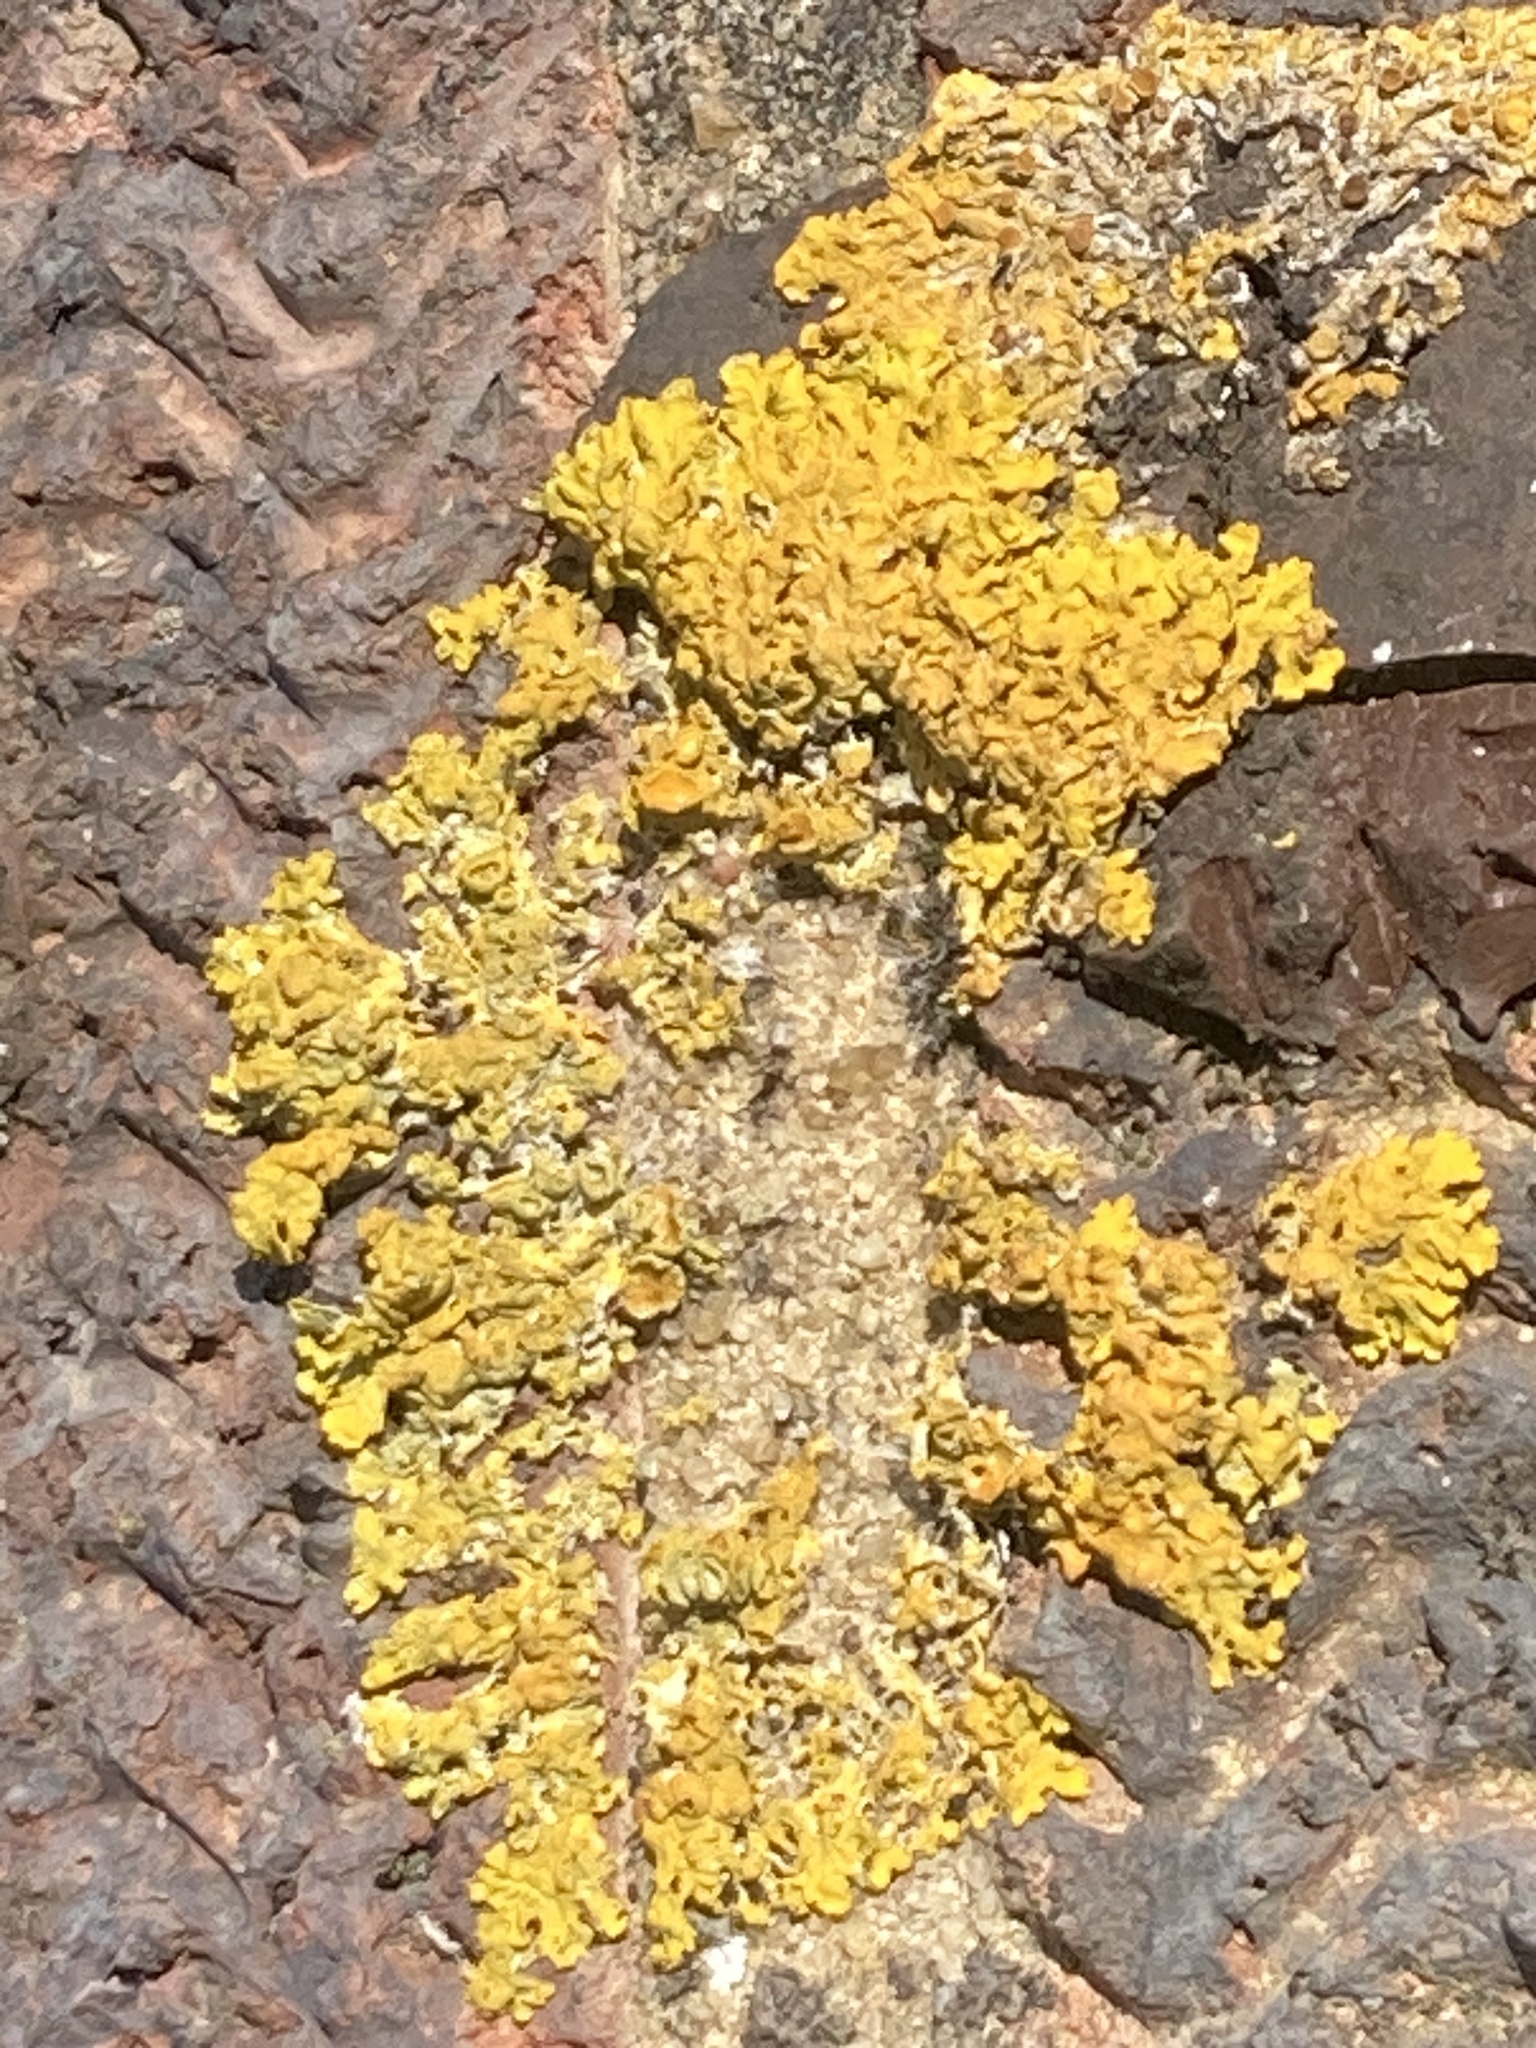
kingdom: Fungi
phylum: Ascomycota
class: Lecanoromycetes
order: Teloschistales
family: Teloschistaceae
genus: Xanthoria
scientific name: Xanthoria parietina
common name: Common orange lichen
